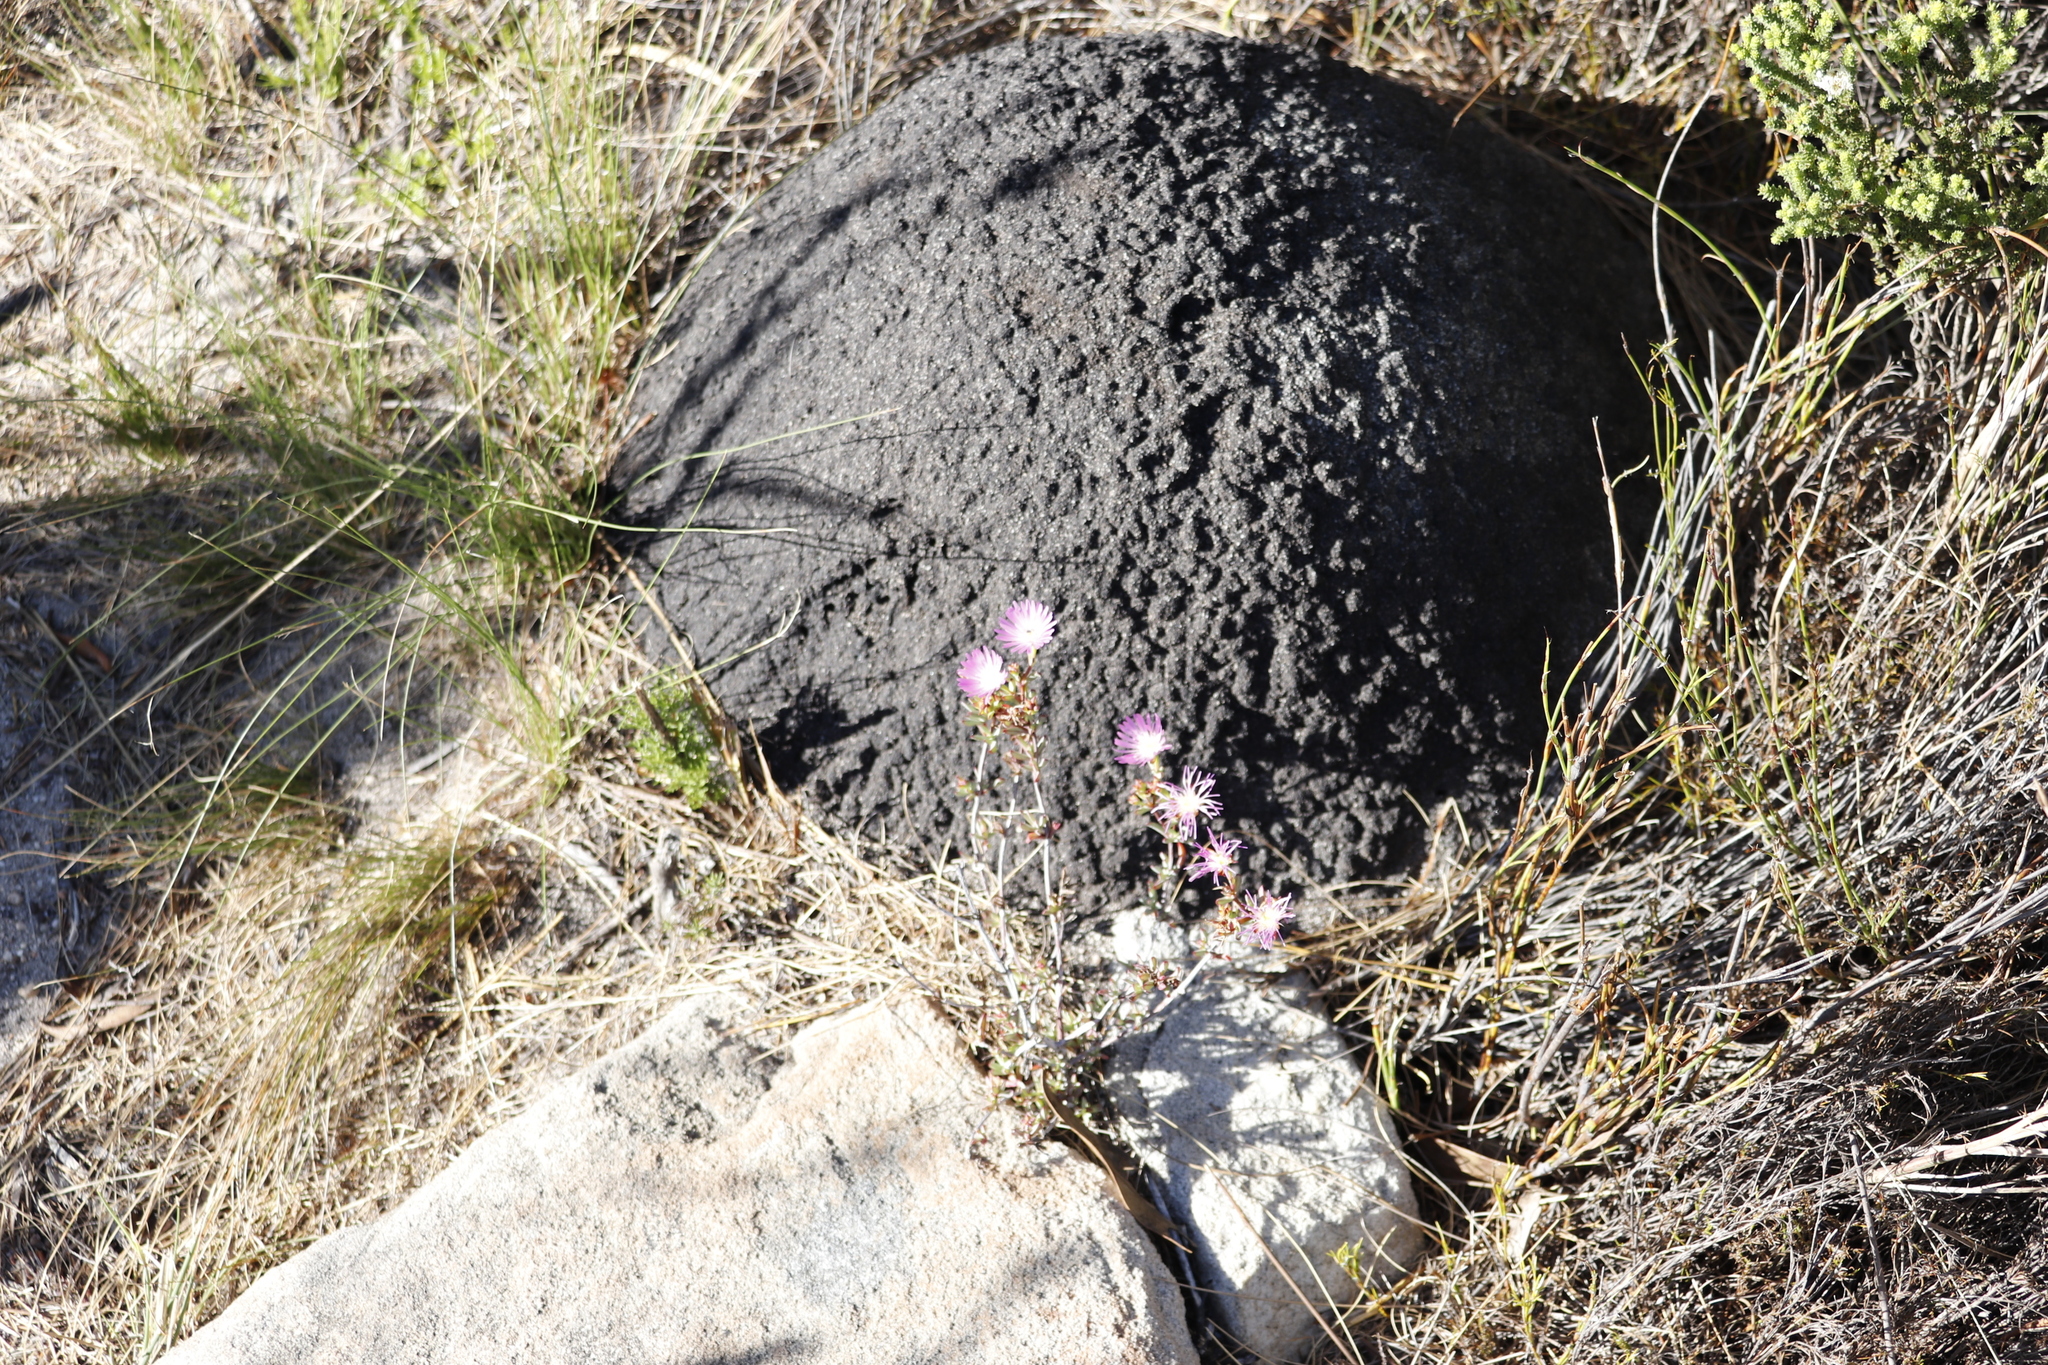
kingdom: Plantae
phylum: Tracheophyta
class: Magnoliopsida
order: Caryophyllales
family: Aizoaceae
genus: Lampranthus
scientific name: Lampranthus glomeratus
